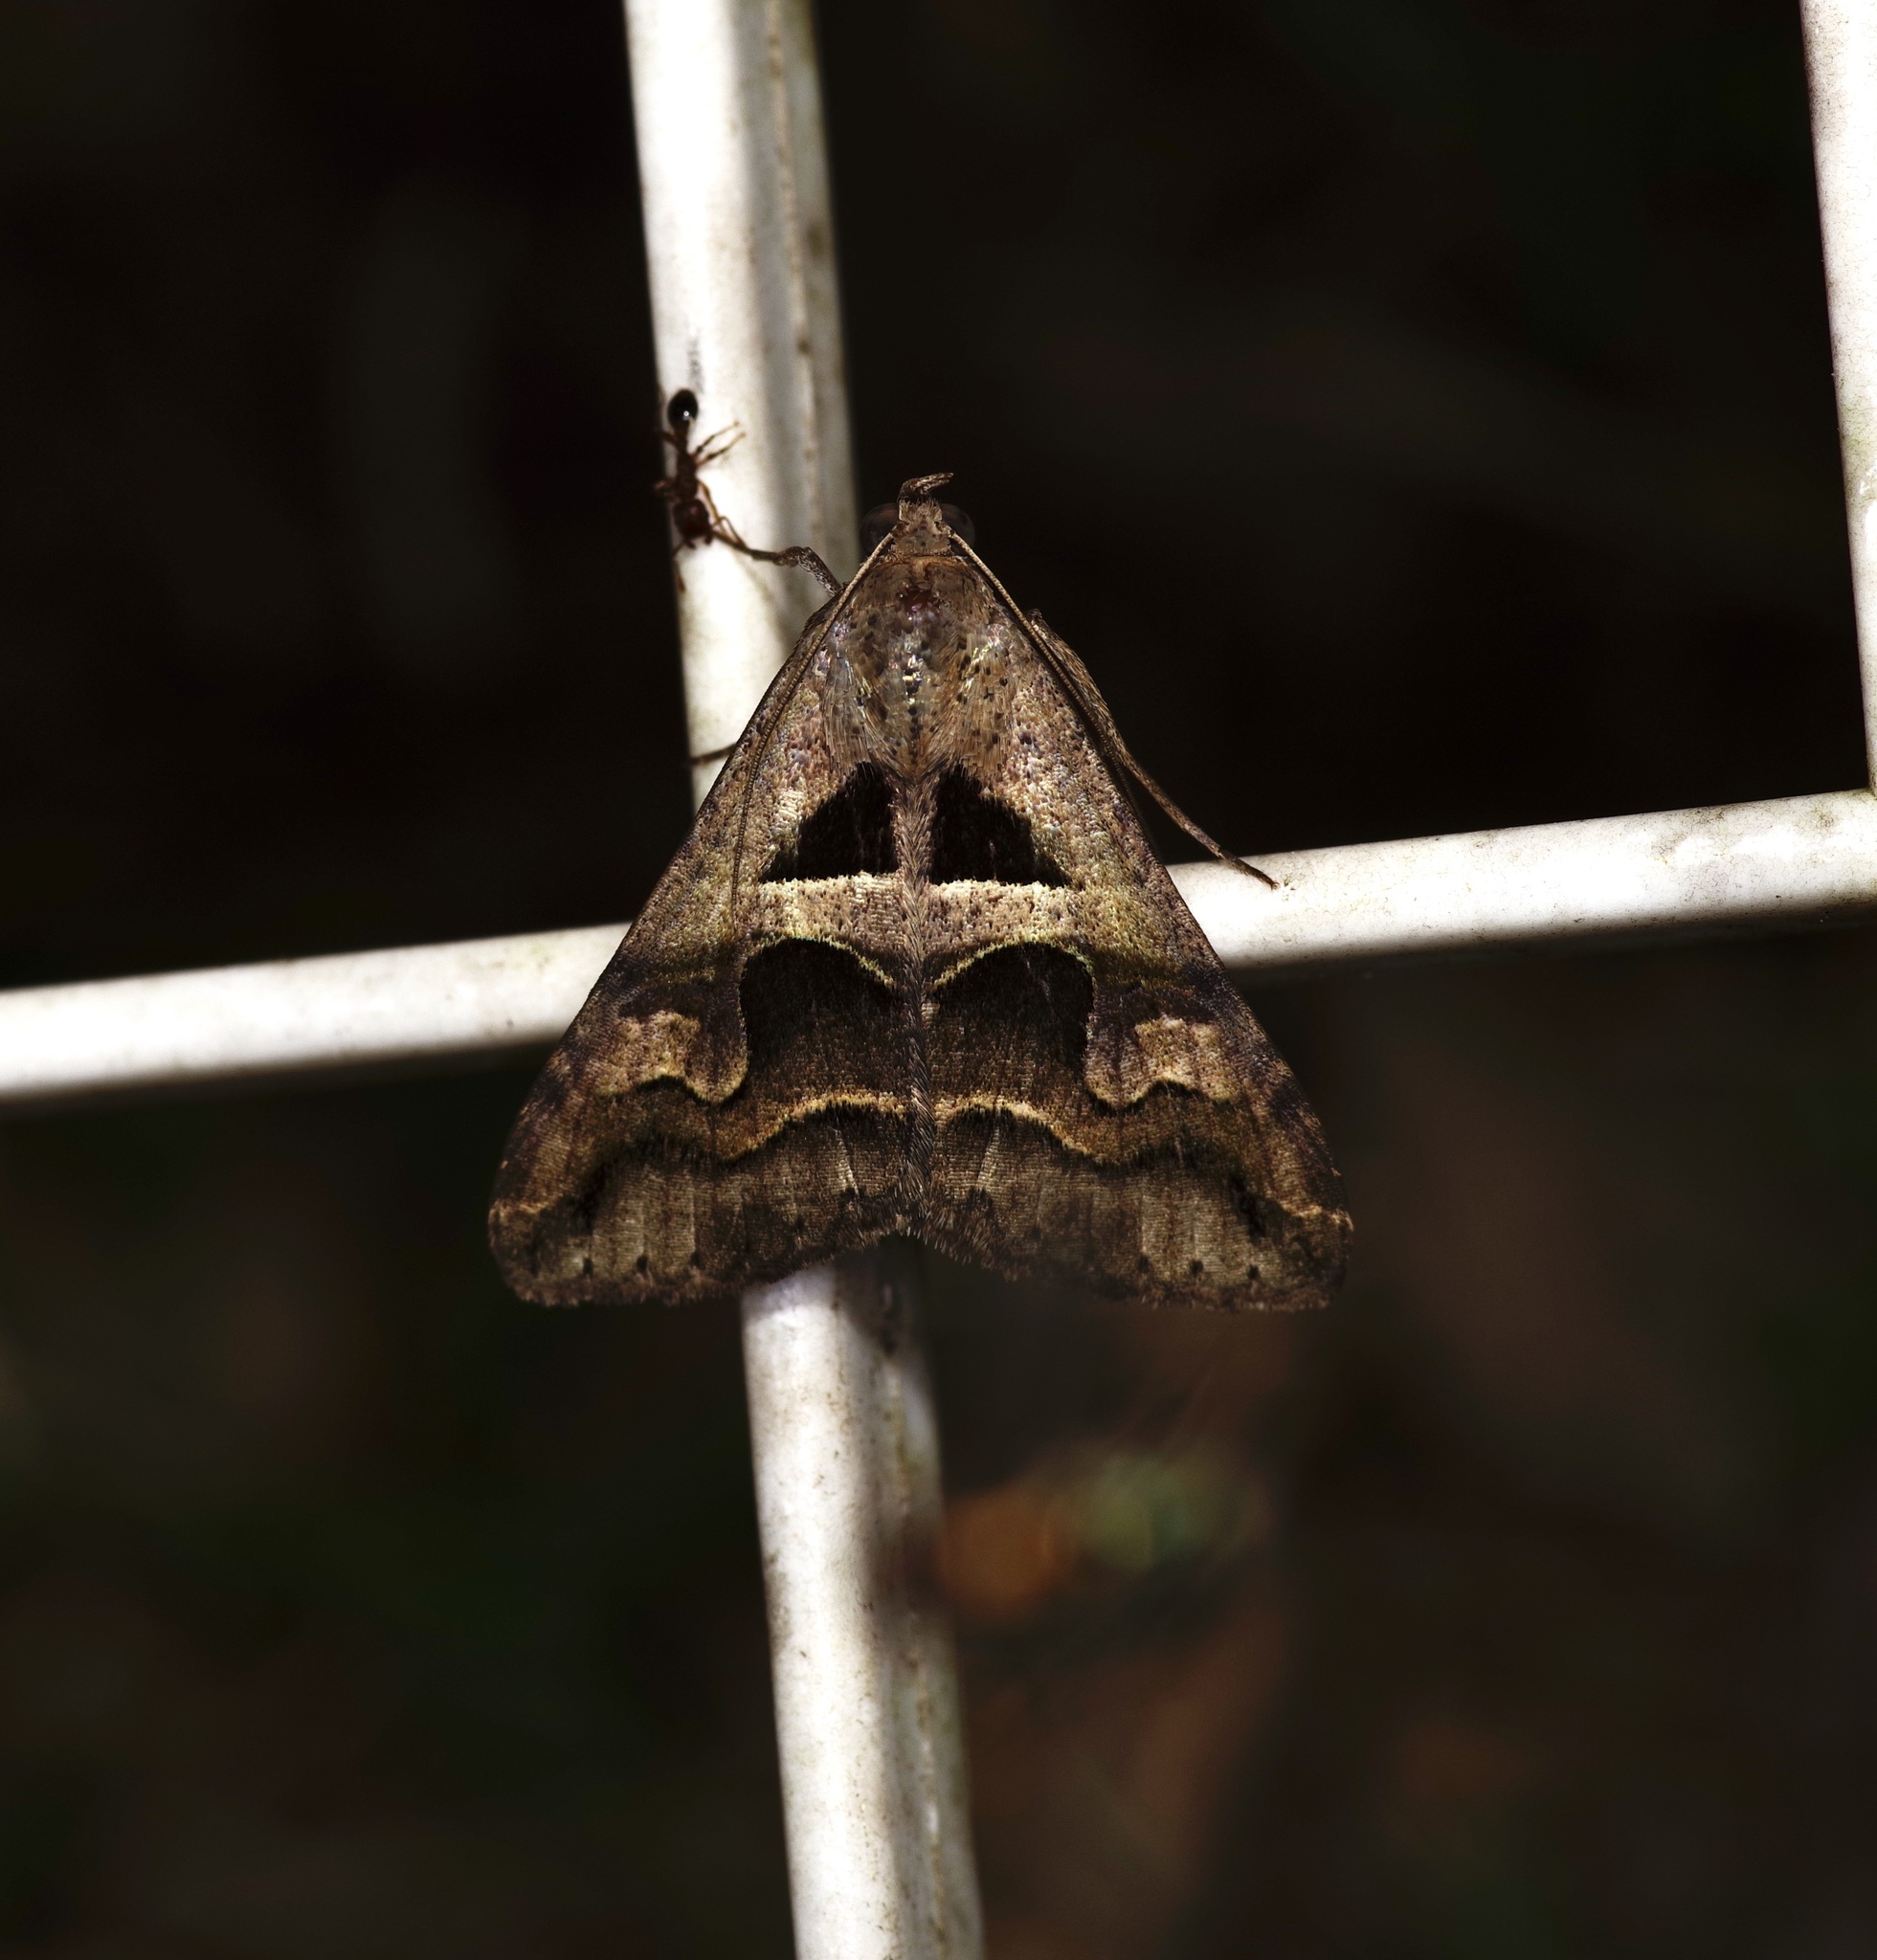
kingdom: Animalia
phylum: Arthropoda
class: Insecta
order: Lepidoptera
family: Erebidae
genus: Melipotis
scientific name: Melipotis cellaris
